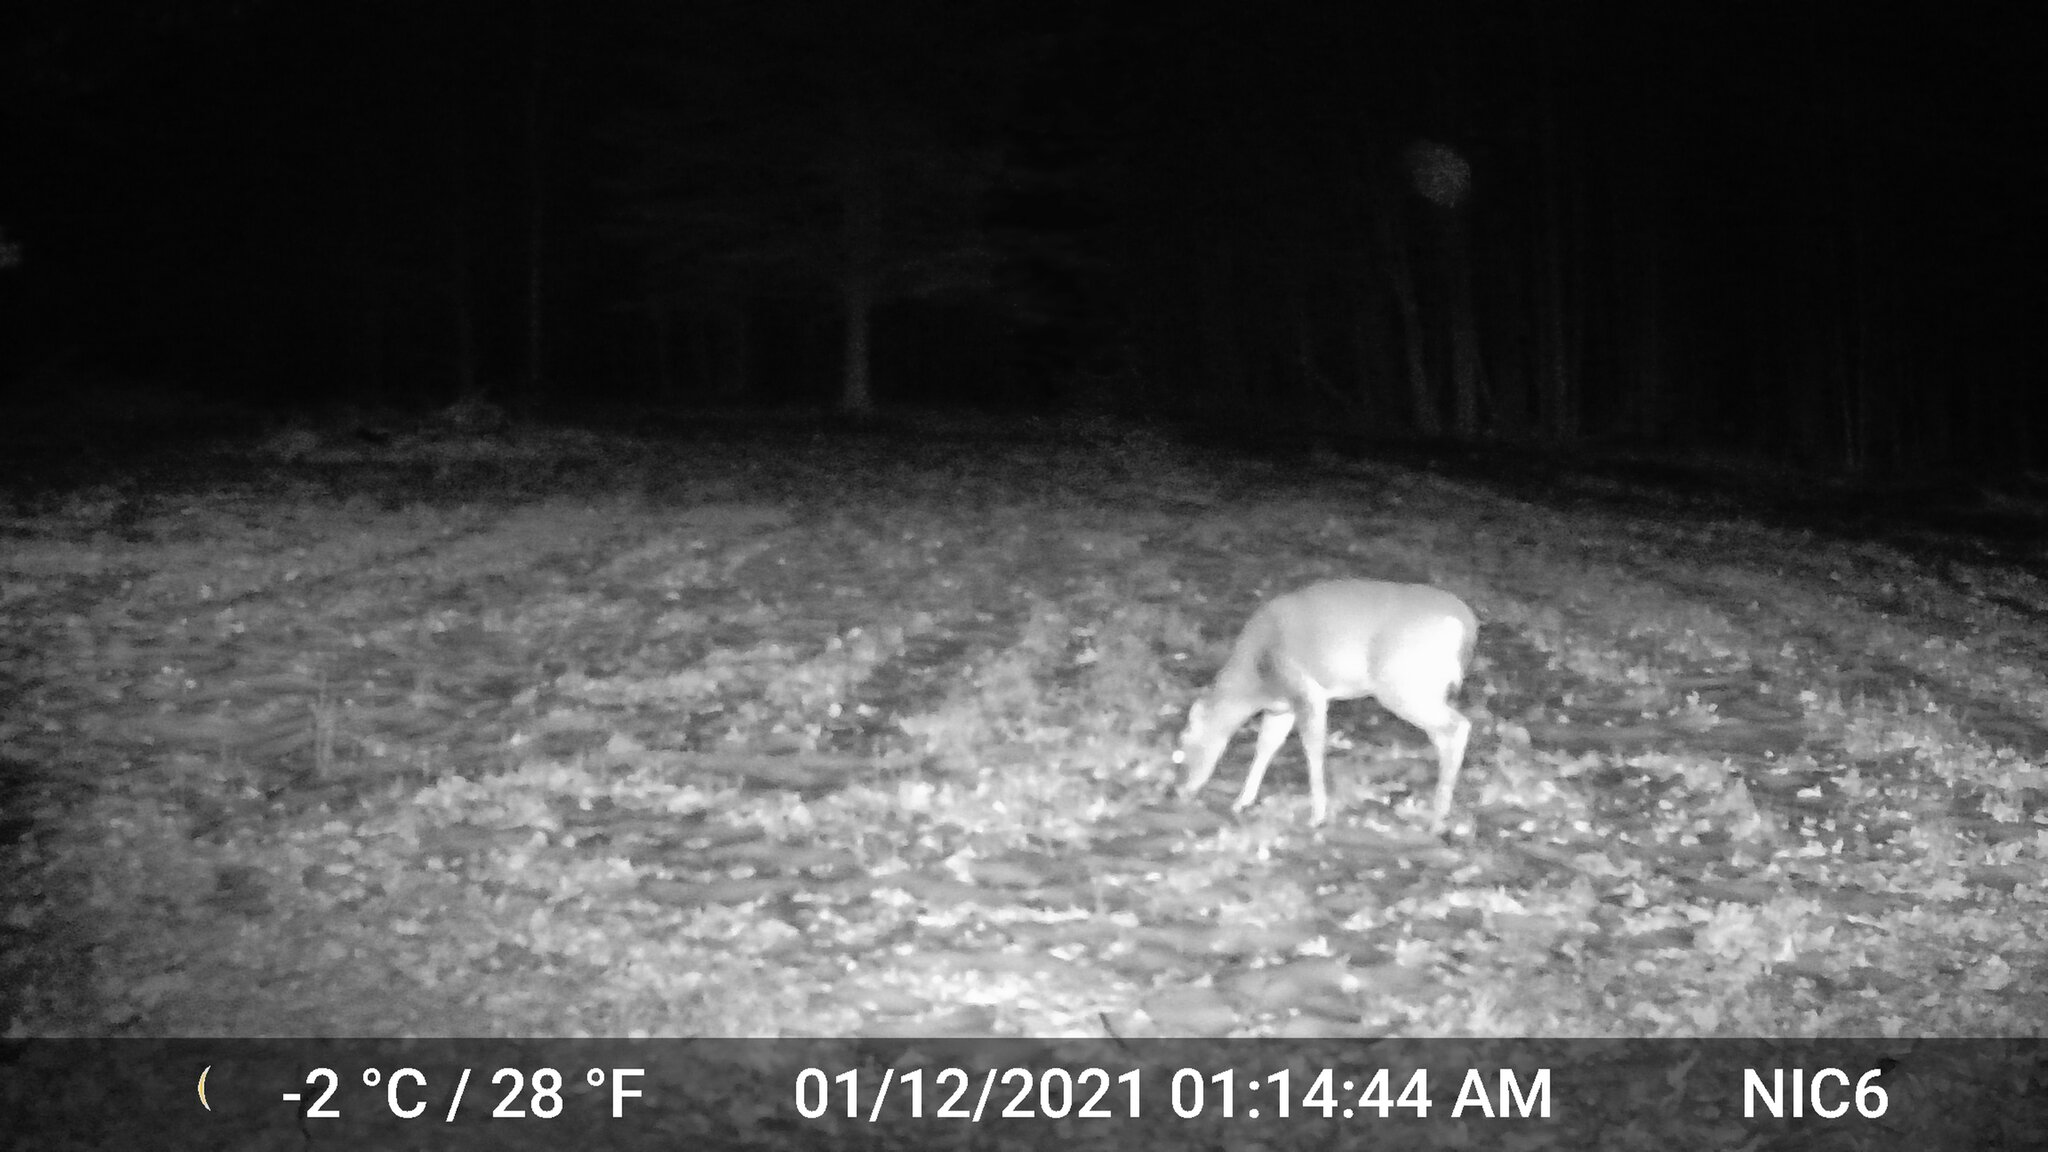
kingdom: Animalia
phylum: Chordata
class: Mammalia
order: Artiodactyla
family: Cervidae
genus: Odocoileus
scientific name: Odocoileus virginianus
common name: White-tailed deer
